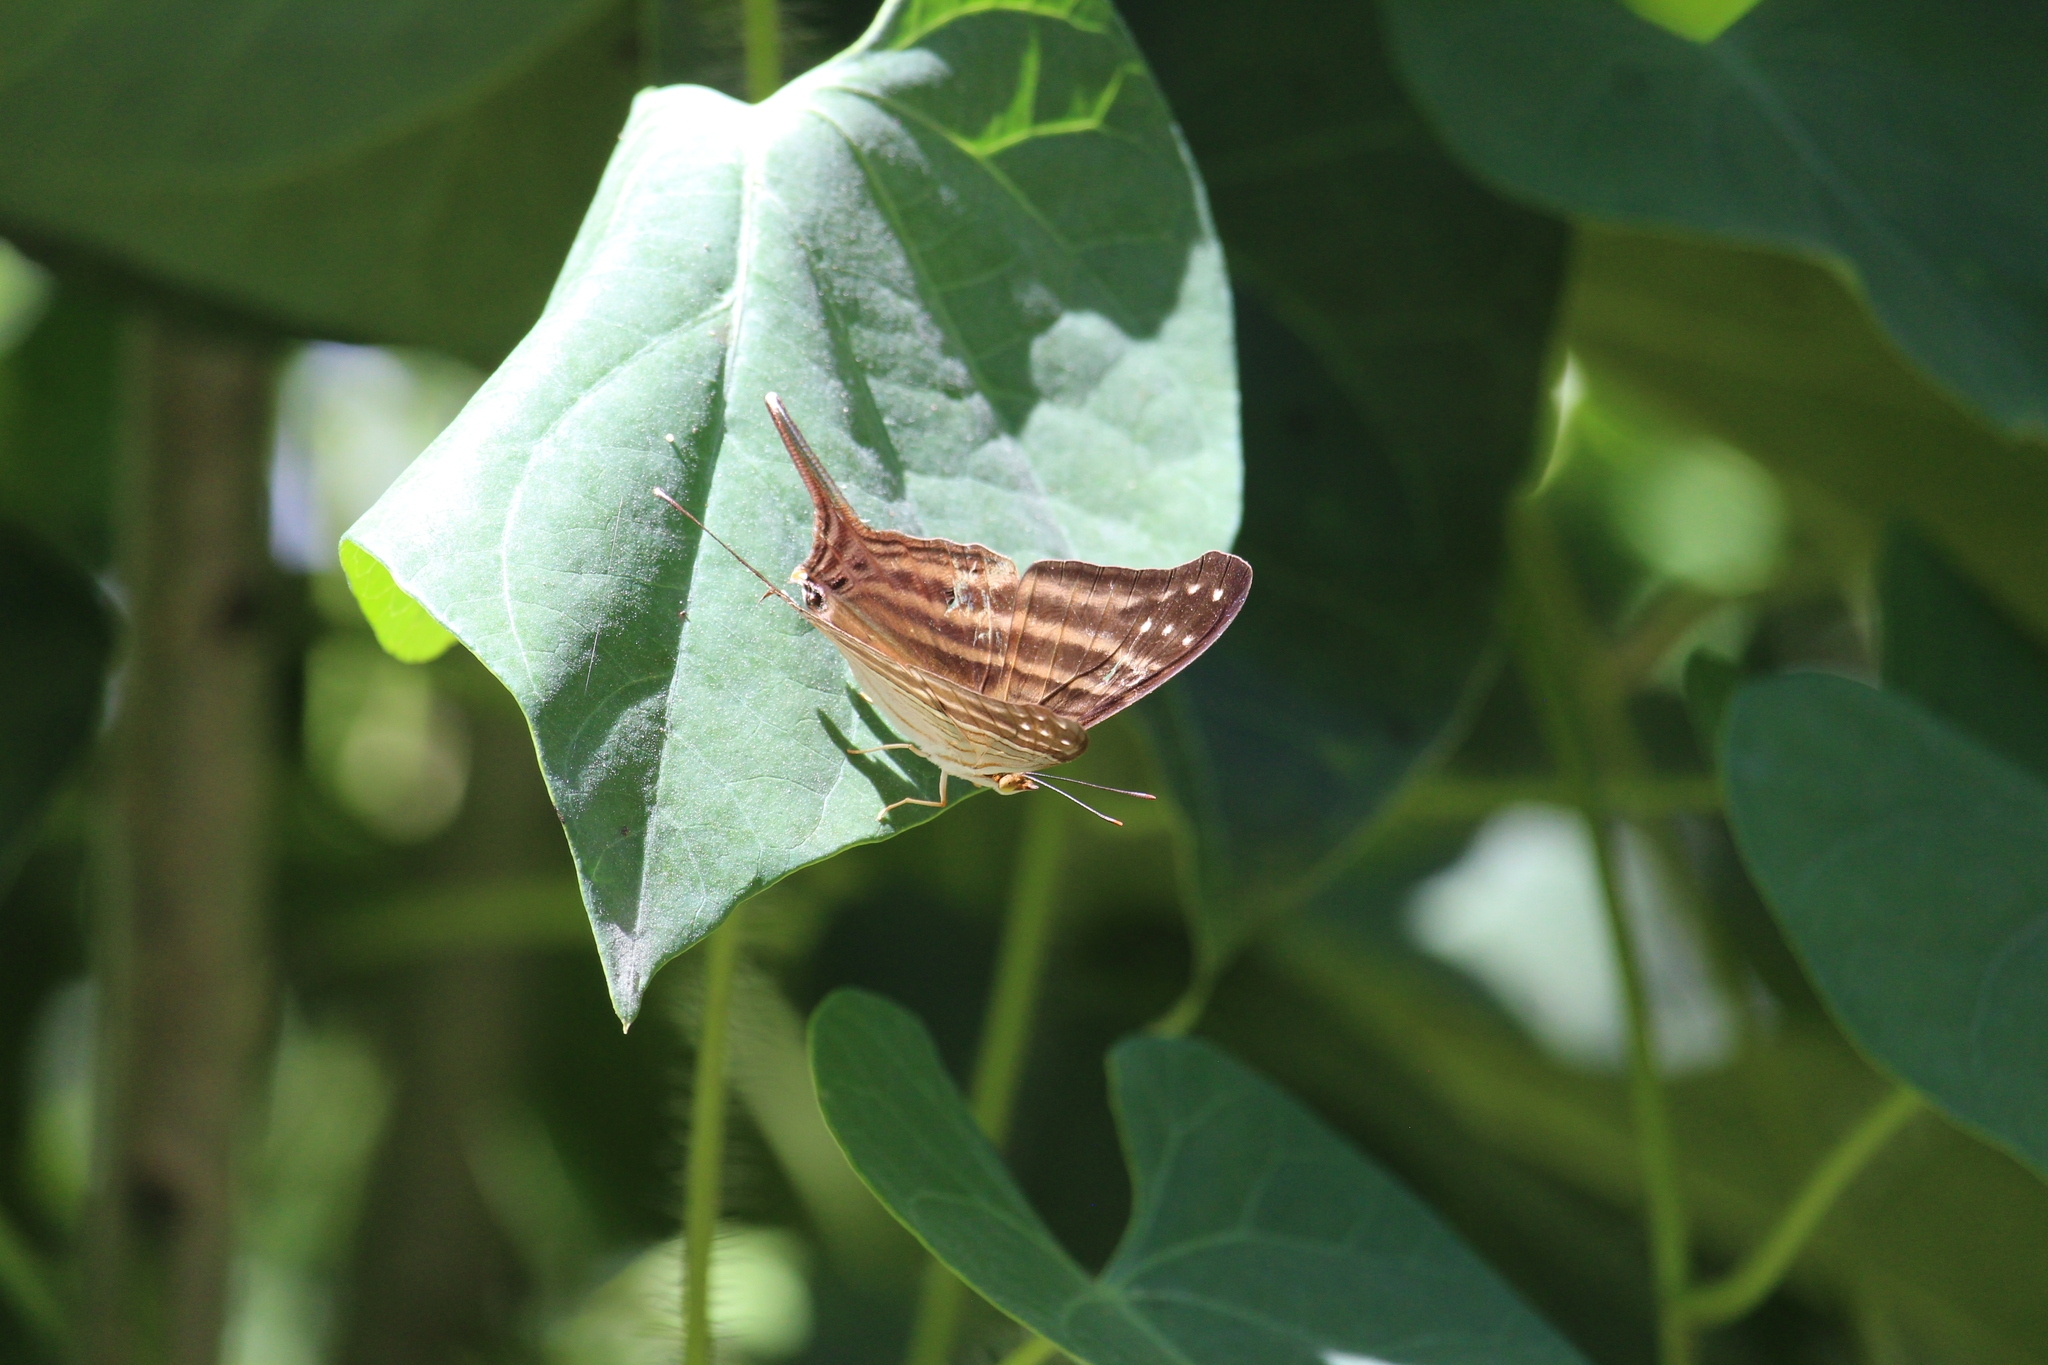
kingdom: Animalia
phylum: Arthropoda
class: Insecta
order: Lepidoptera
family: Nymphalidae
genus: Marpesia
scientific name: Marpesia chiron
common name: Many-banded daggerwing
